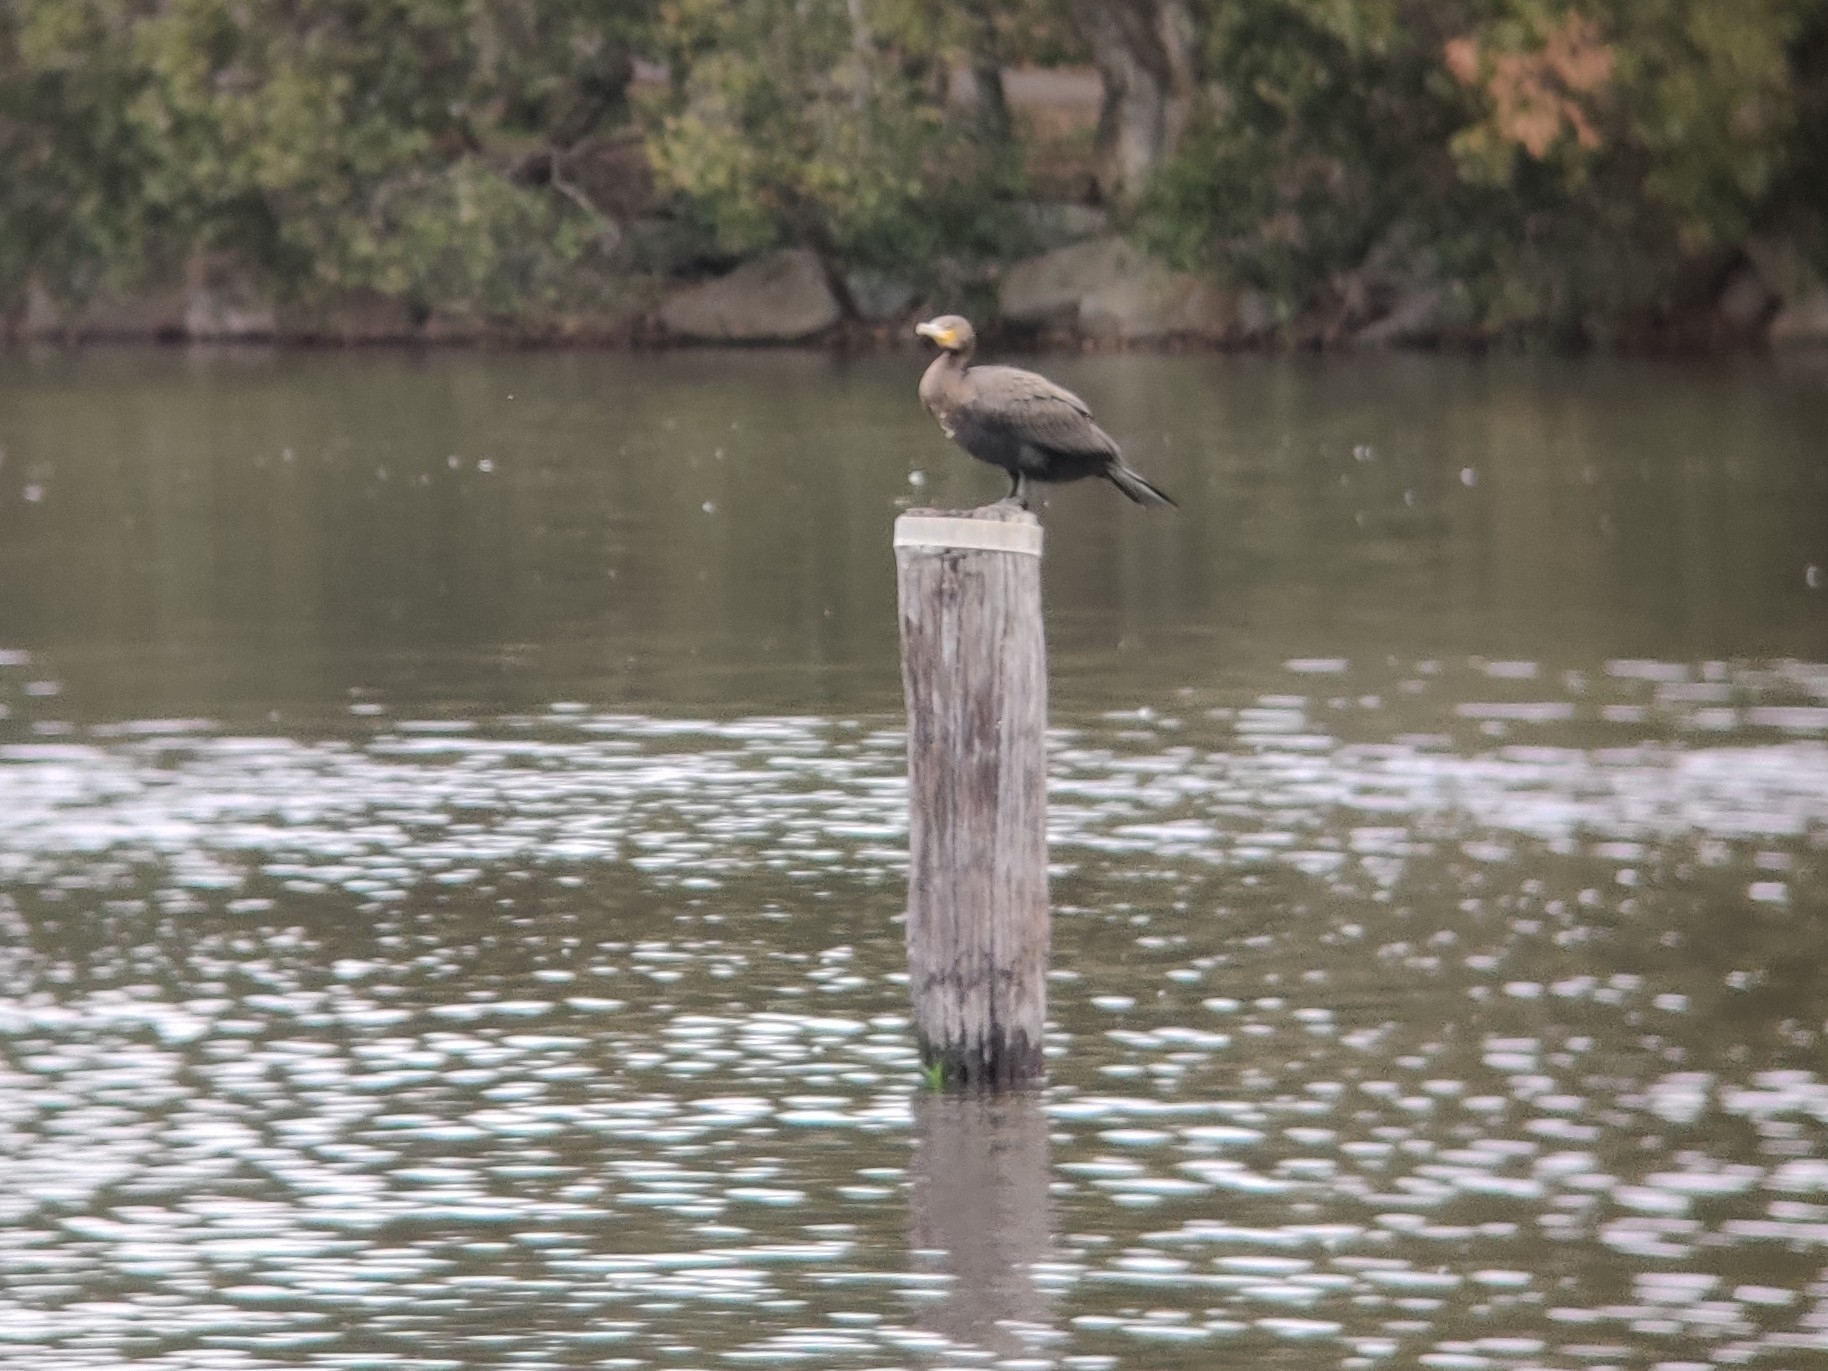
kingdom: Animalia
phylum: Chordata
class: Aves
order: Suliformes
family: Phalacrocoracidae
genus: Phalacrocorax
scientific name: Phalacrocorax carbo
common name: Great cormorant
